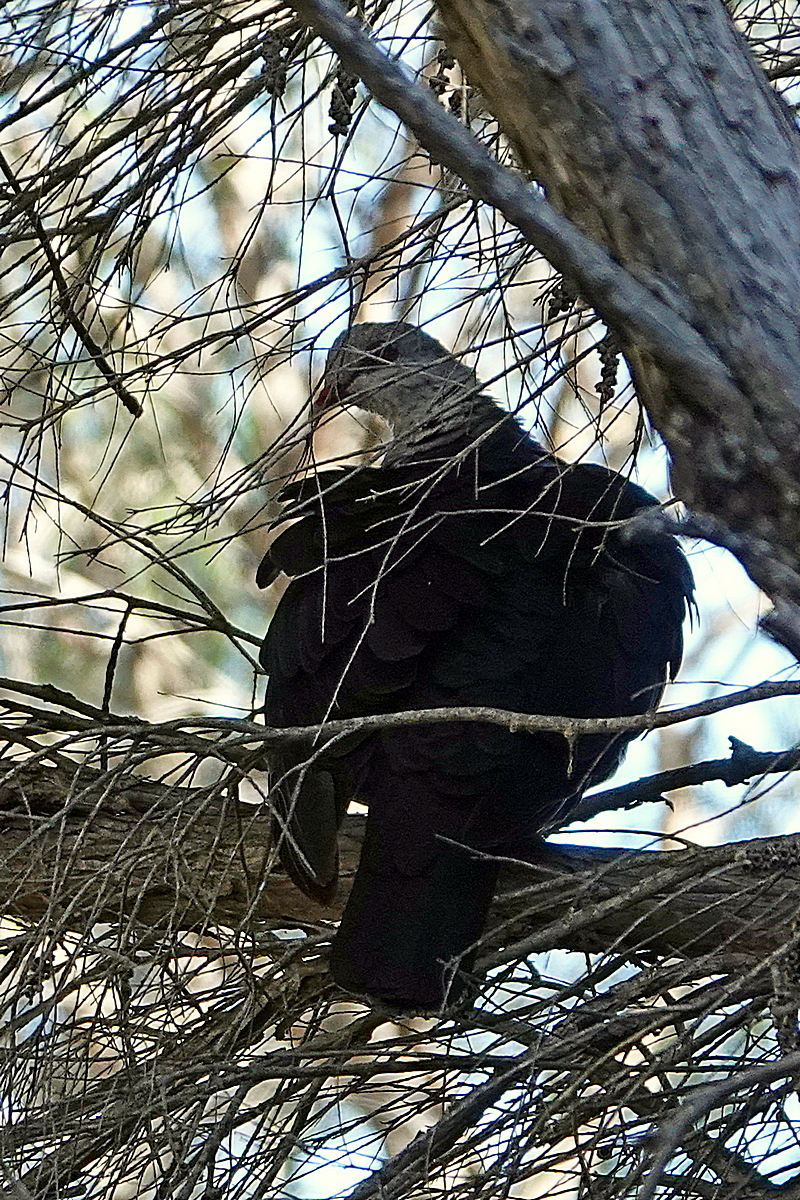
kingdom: Animalia
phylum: Chordata
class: Aves
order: Columbiformes
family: Columbidae
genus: Columba
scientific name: Columba leucomela
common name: White-headed pigeon
